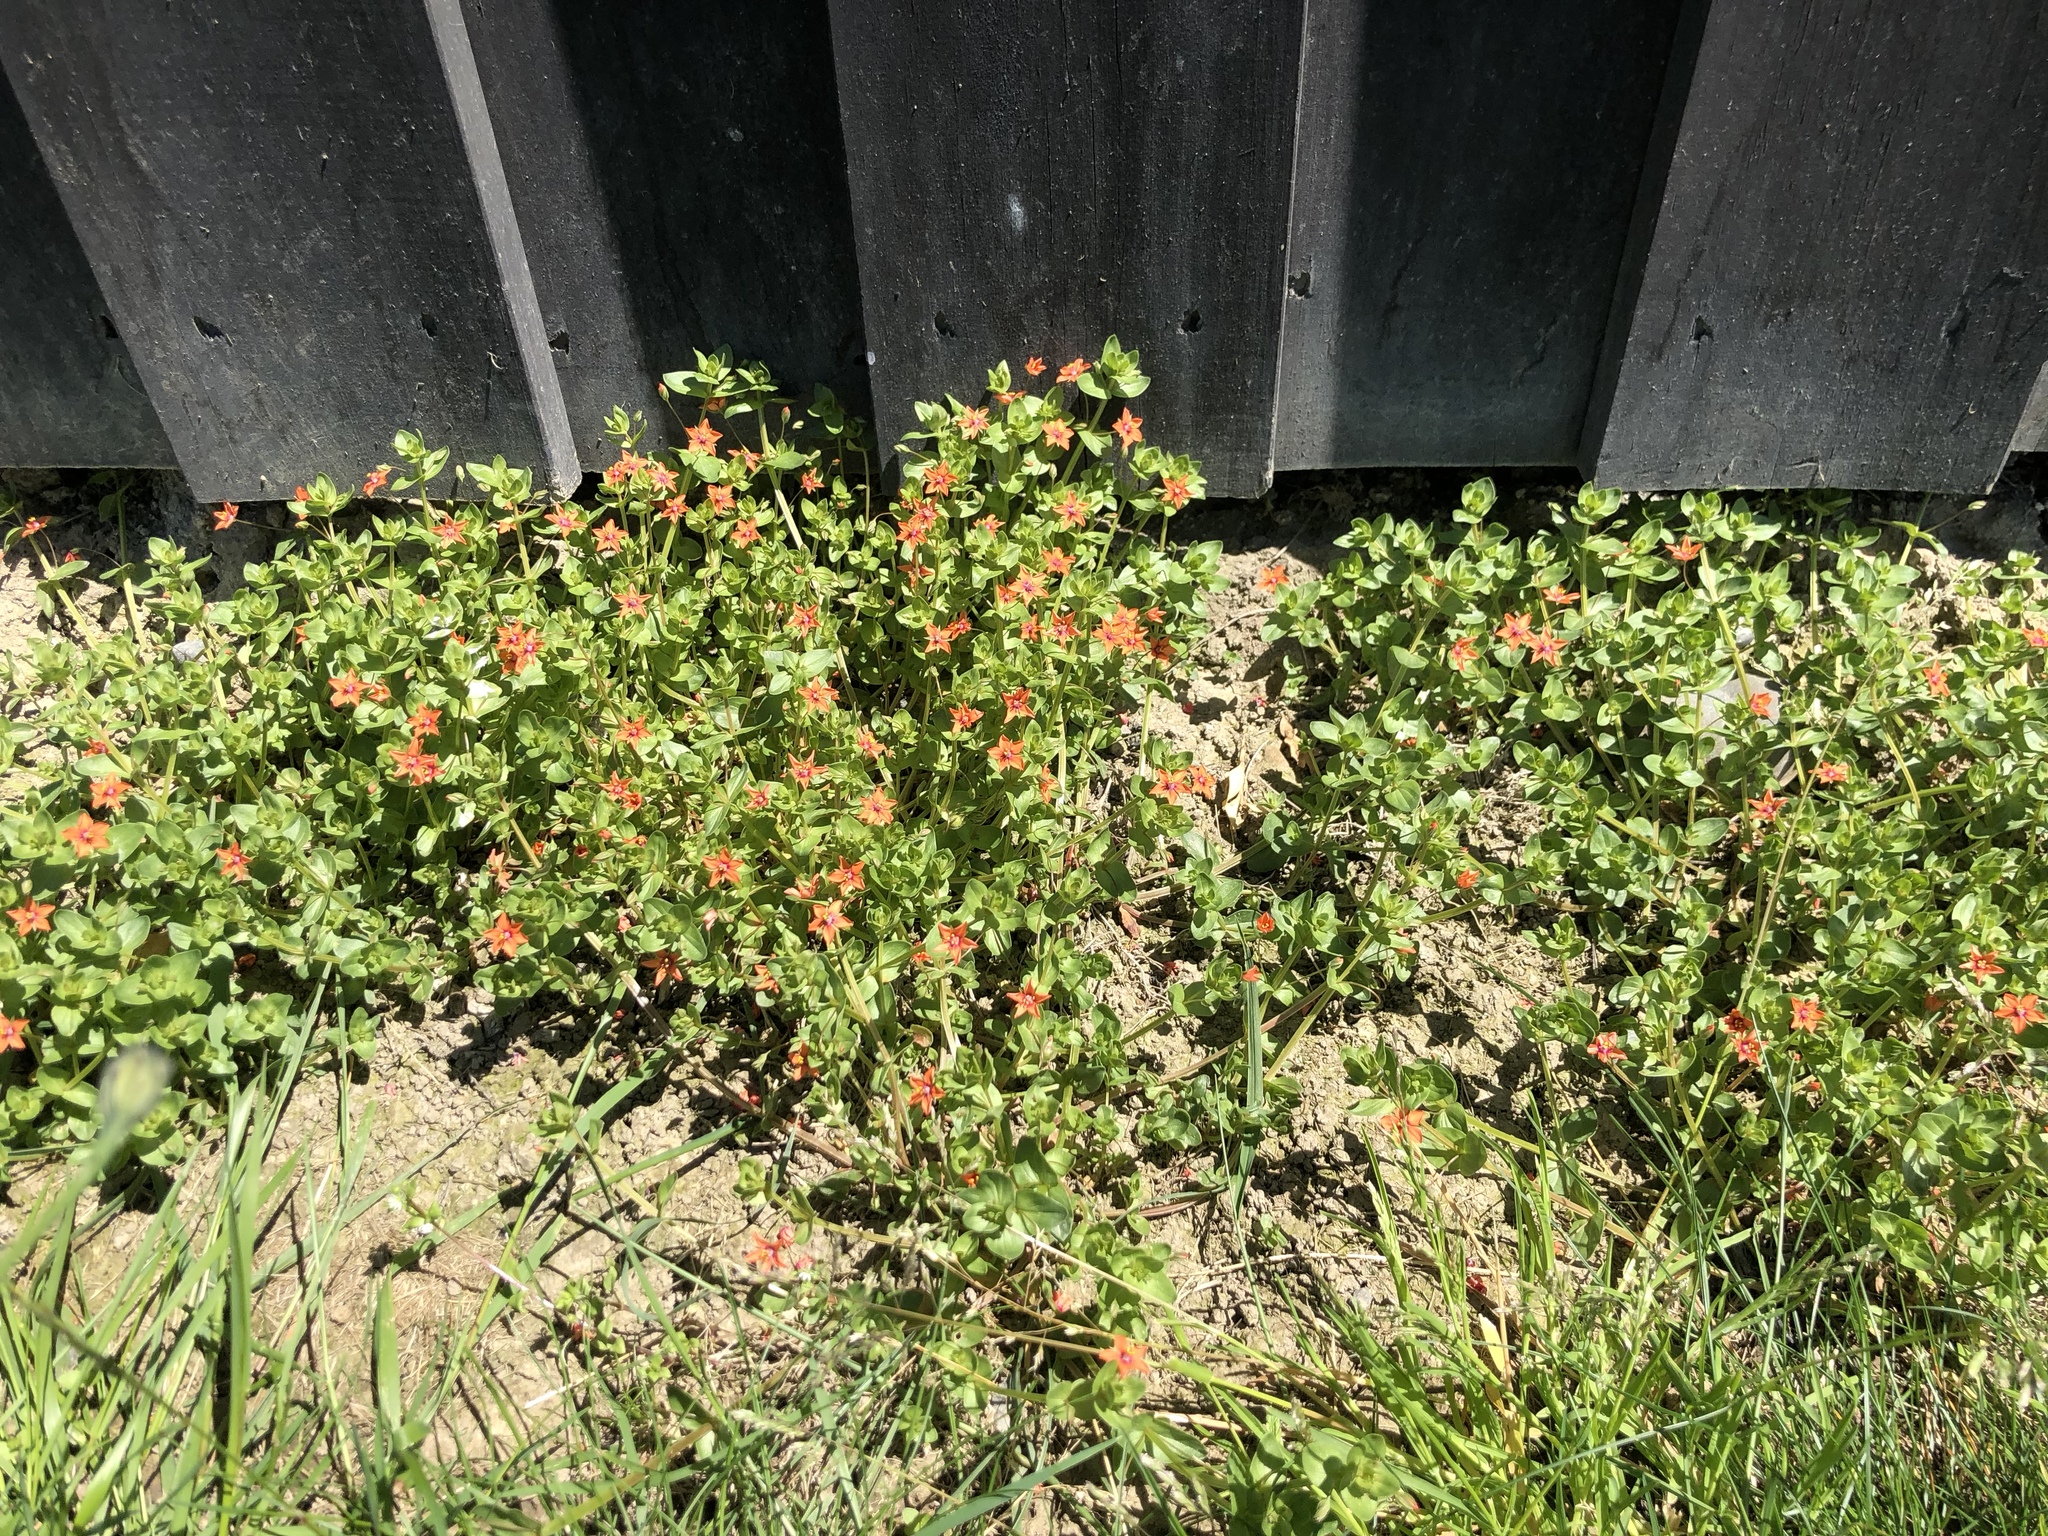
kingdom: Plantae
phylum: Tracheophyta
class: Magnoliopsida
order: Ericales
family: Primulaceae
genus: Lysimachia
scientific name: Lysimachia arvensis
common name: Scarlet pimpernel
